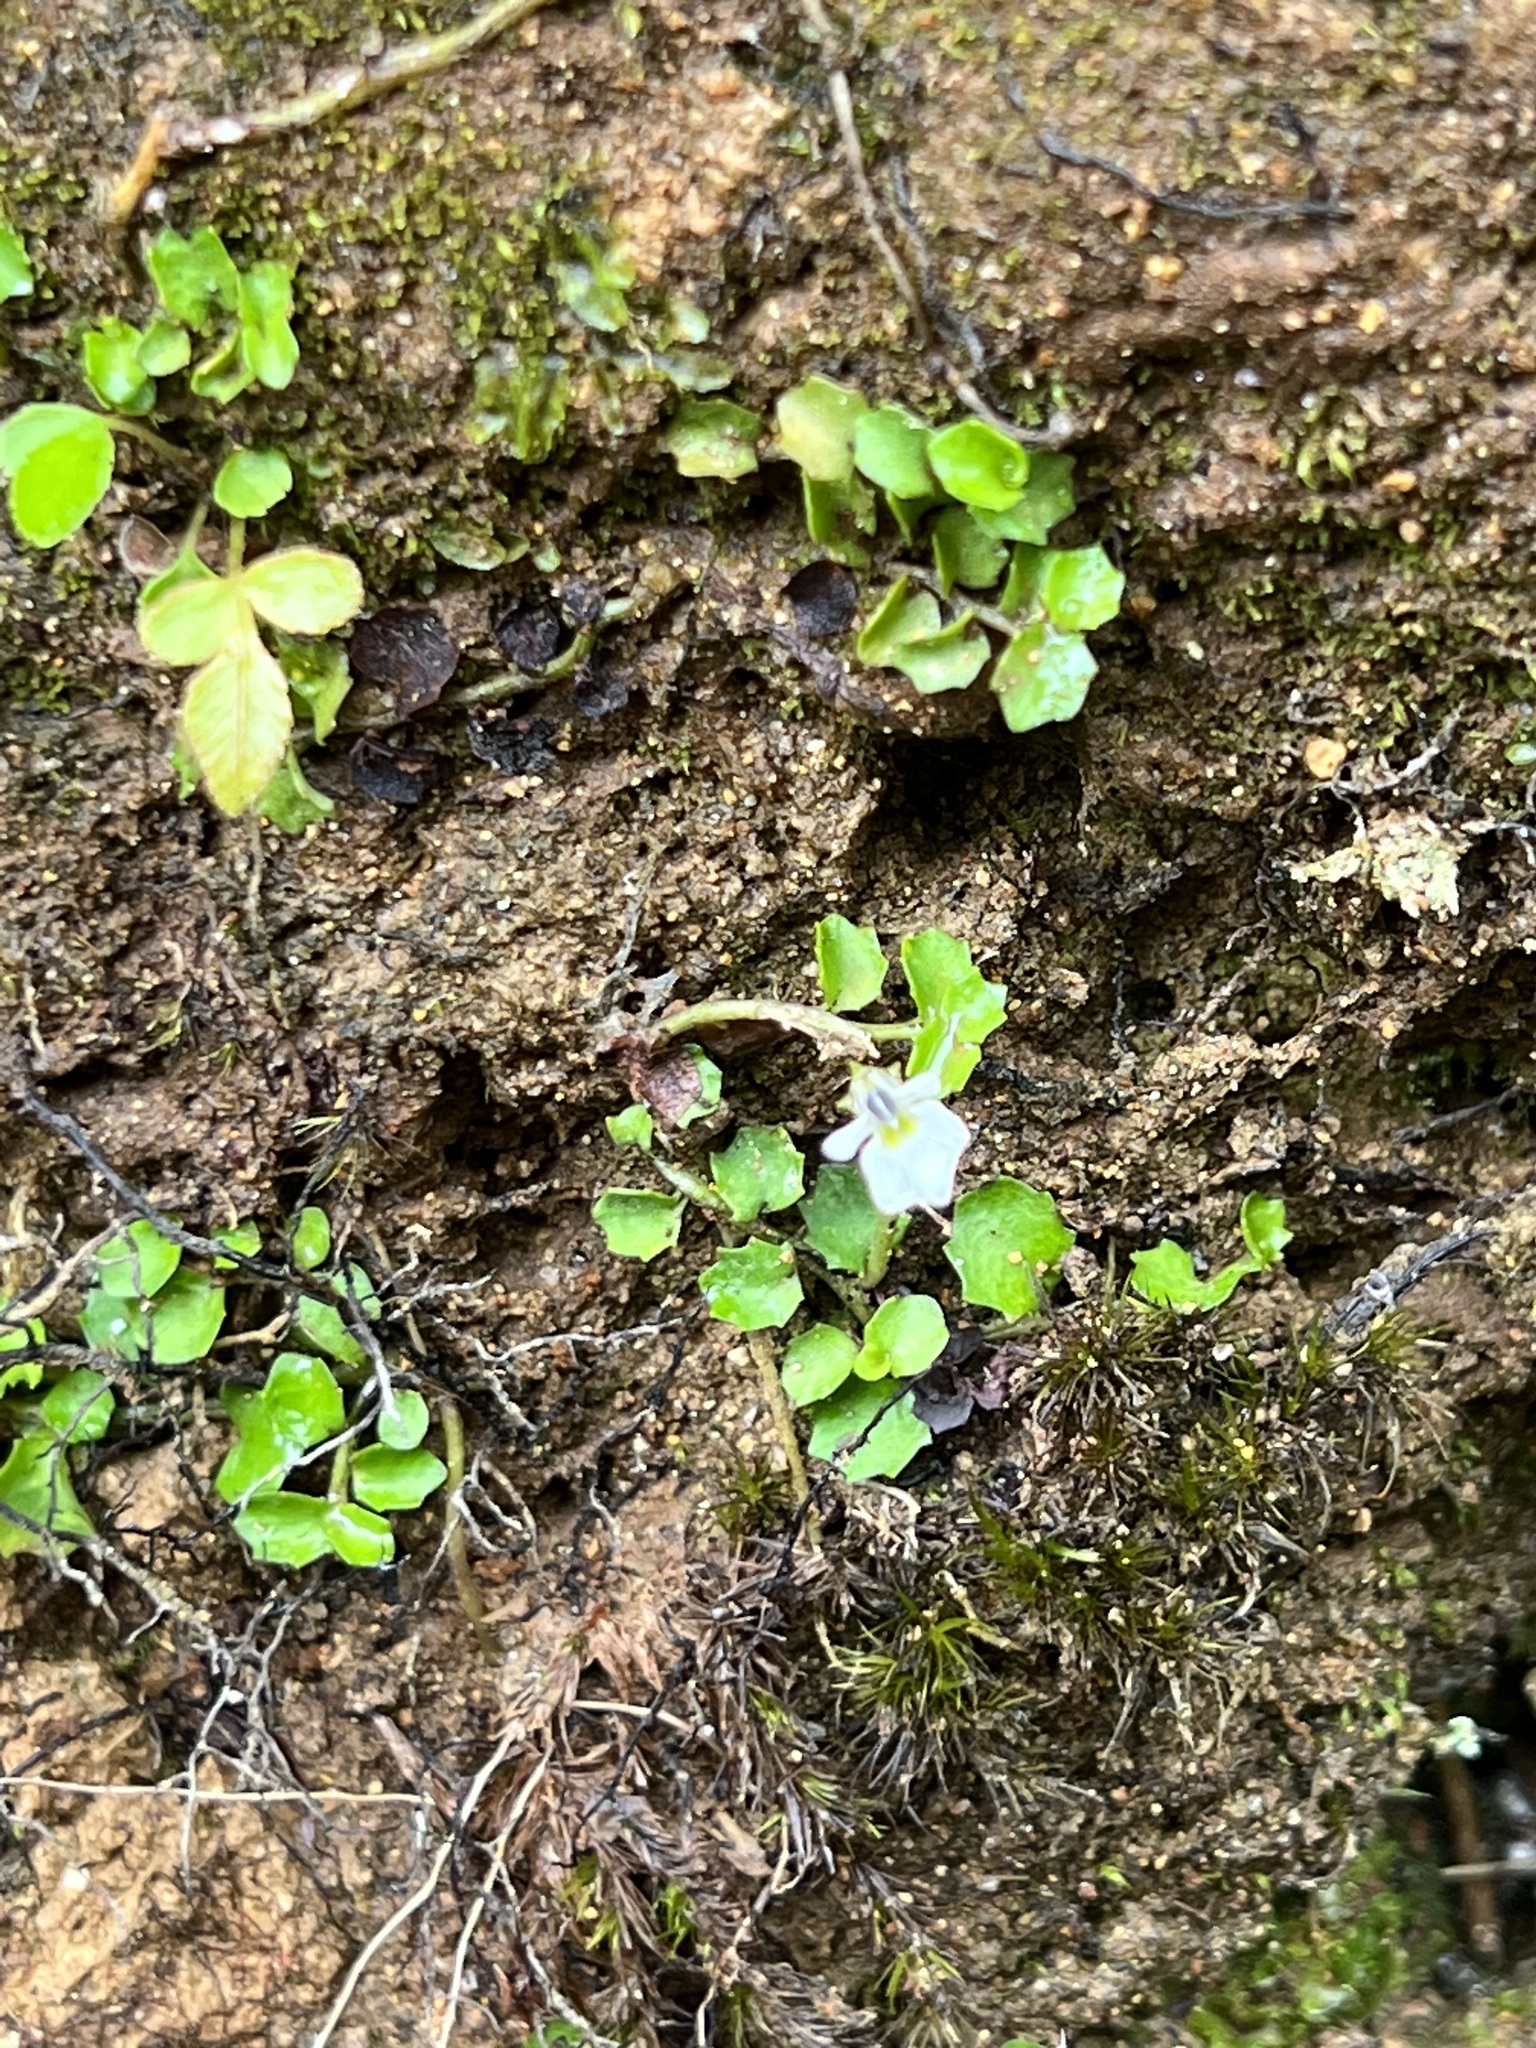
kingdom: Plantae
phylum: Tracheophyta
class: Magnoliopsida
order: Asterales
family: Campanulaceae
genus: Lobelia
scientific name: Lobelia angulata
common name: Lawn lobelia
